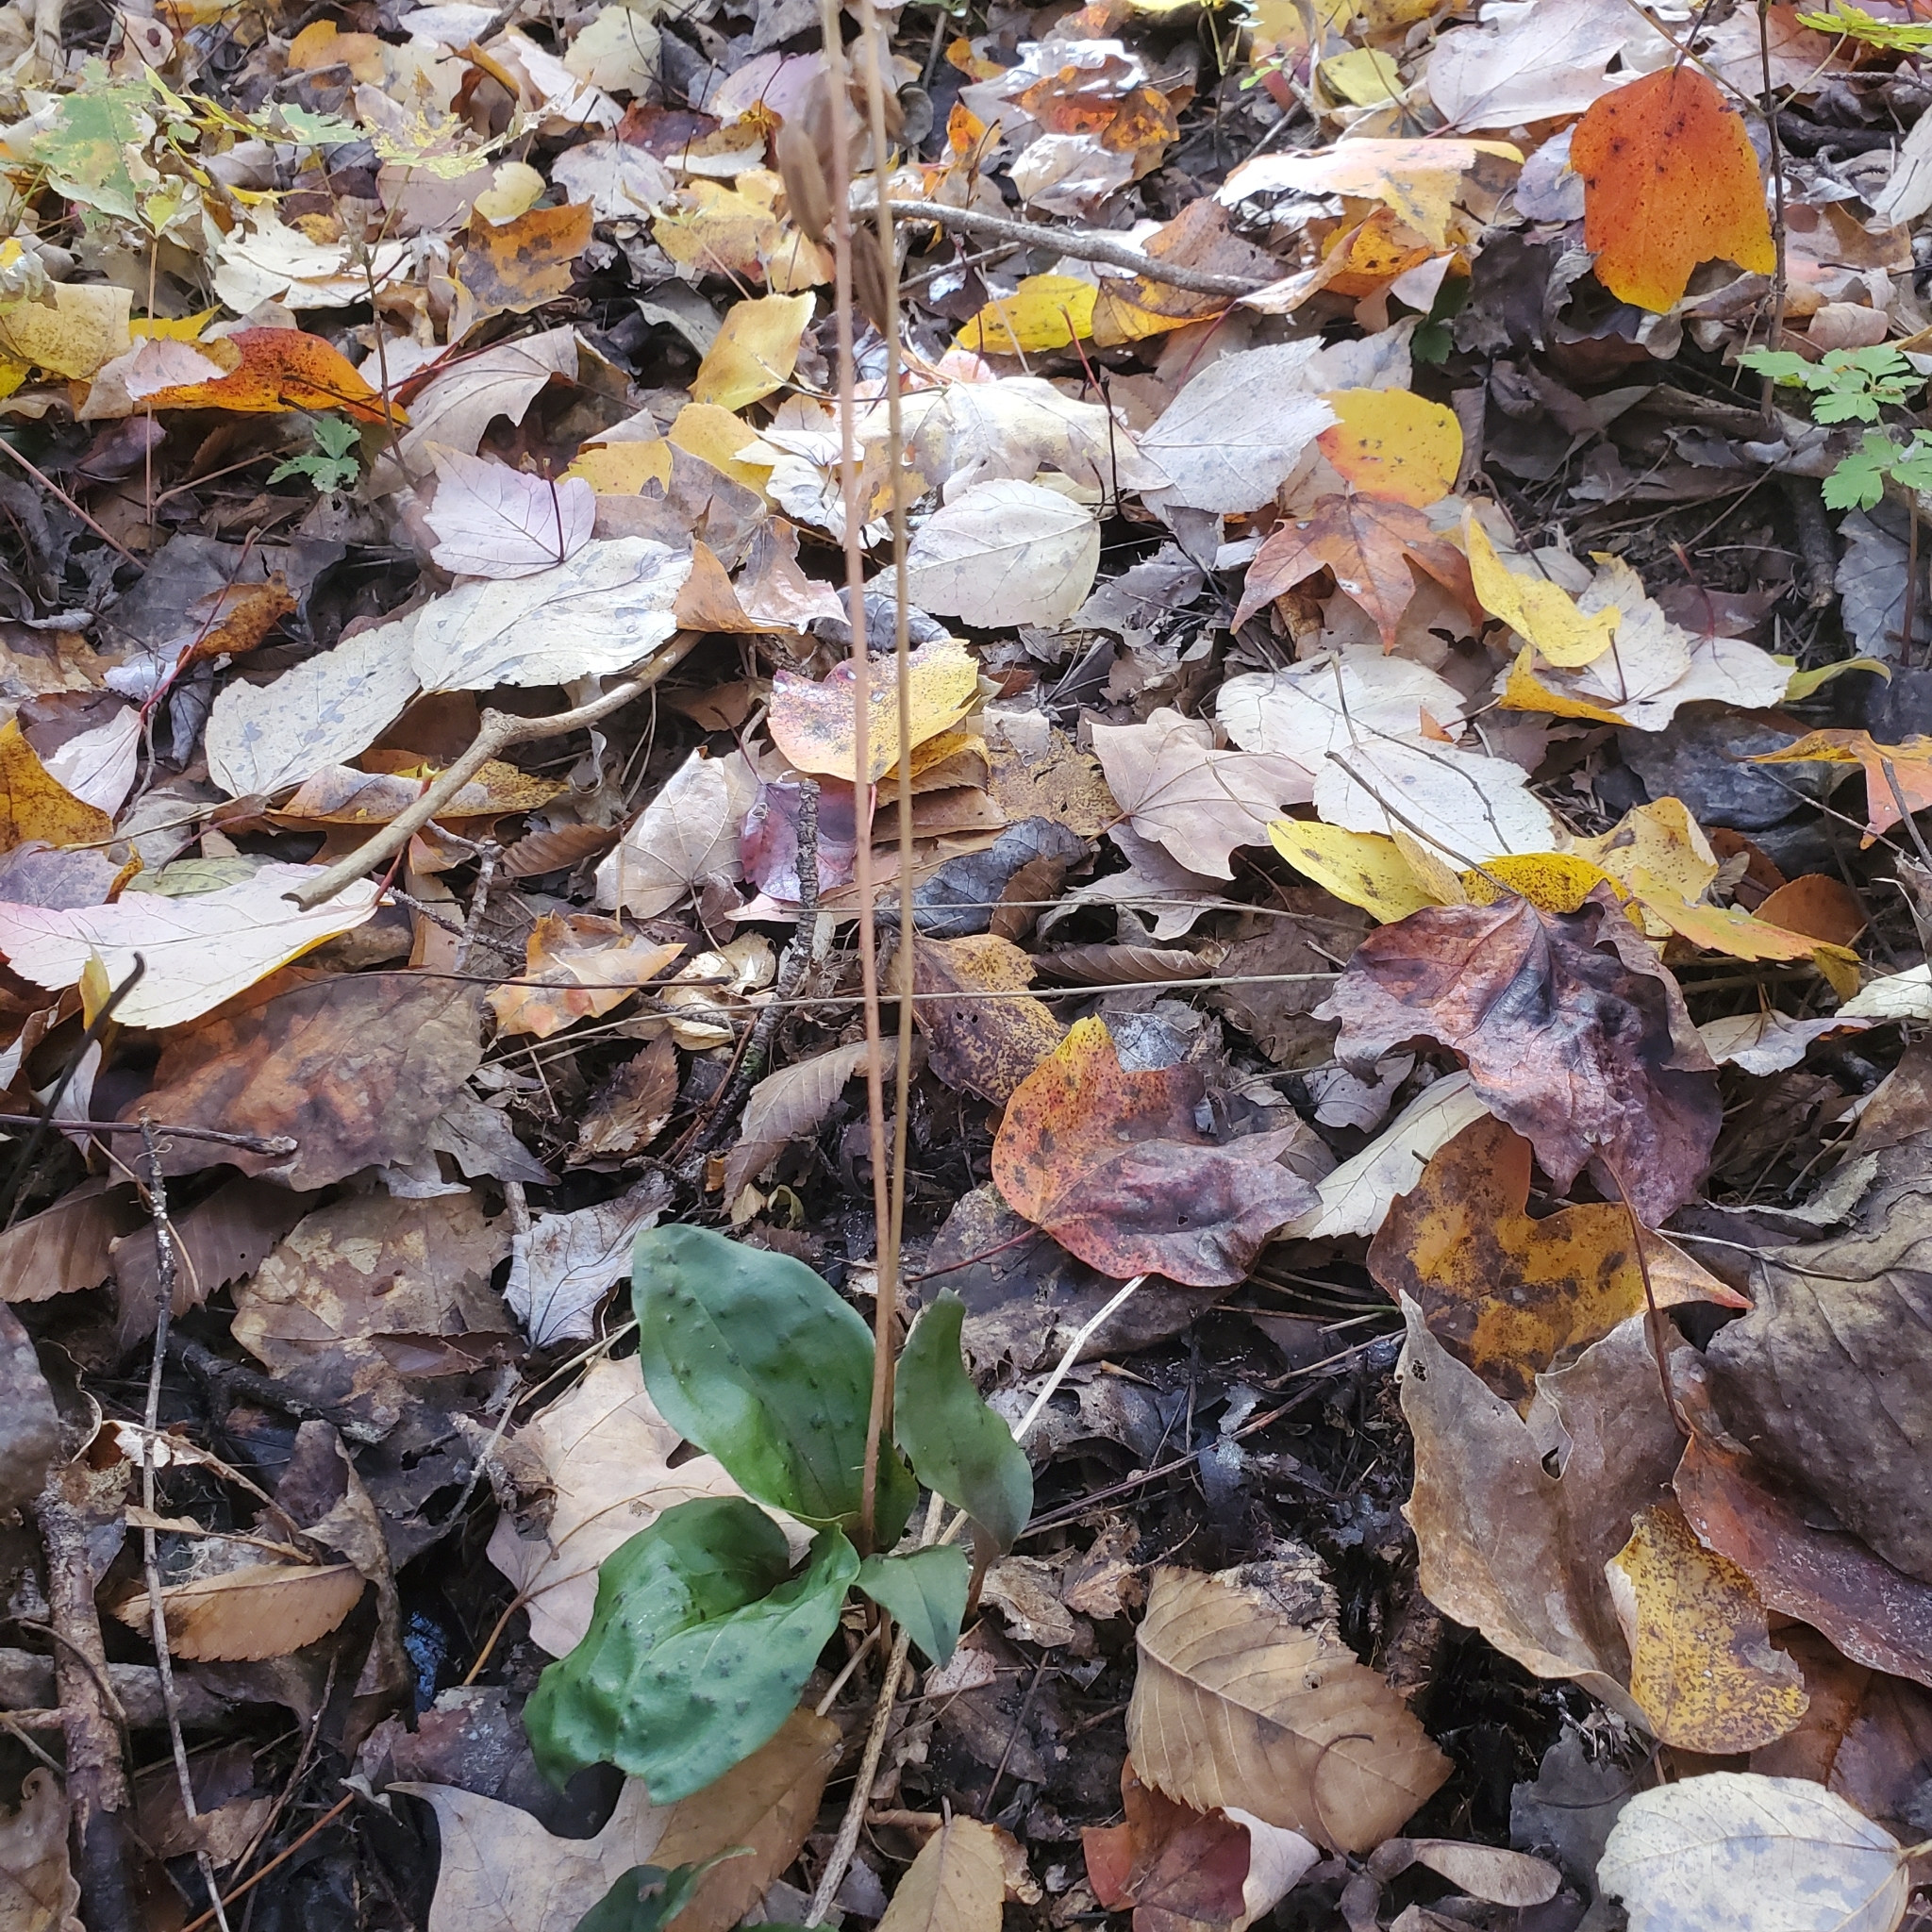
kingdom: Plantae
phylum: Tracheophyta
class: Liliopsida
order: Asparagales
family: Orchidaceae
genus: Tipularia
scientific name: Tipularia discolor
